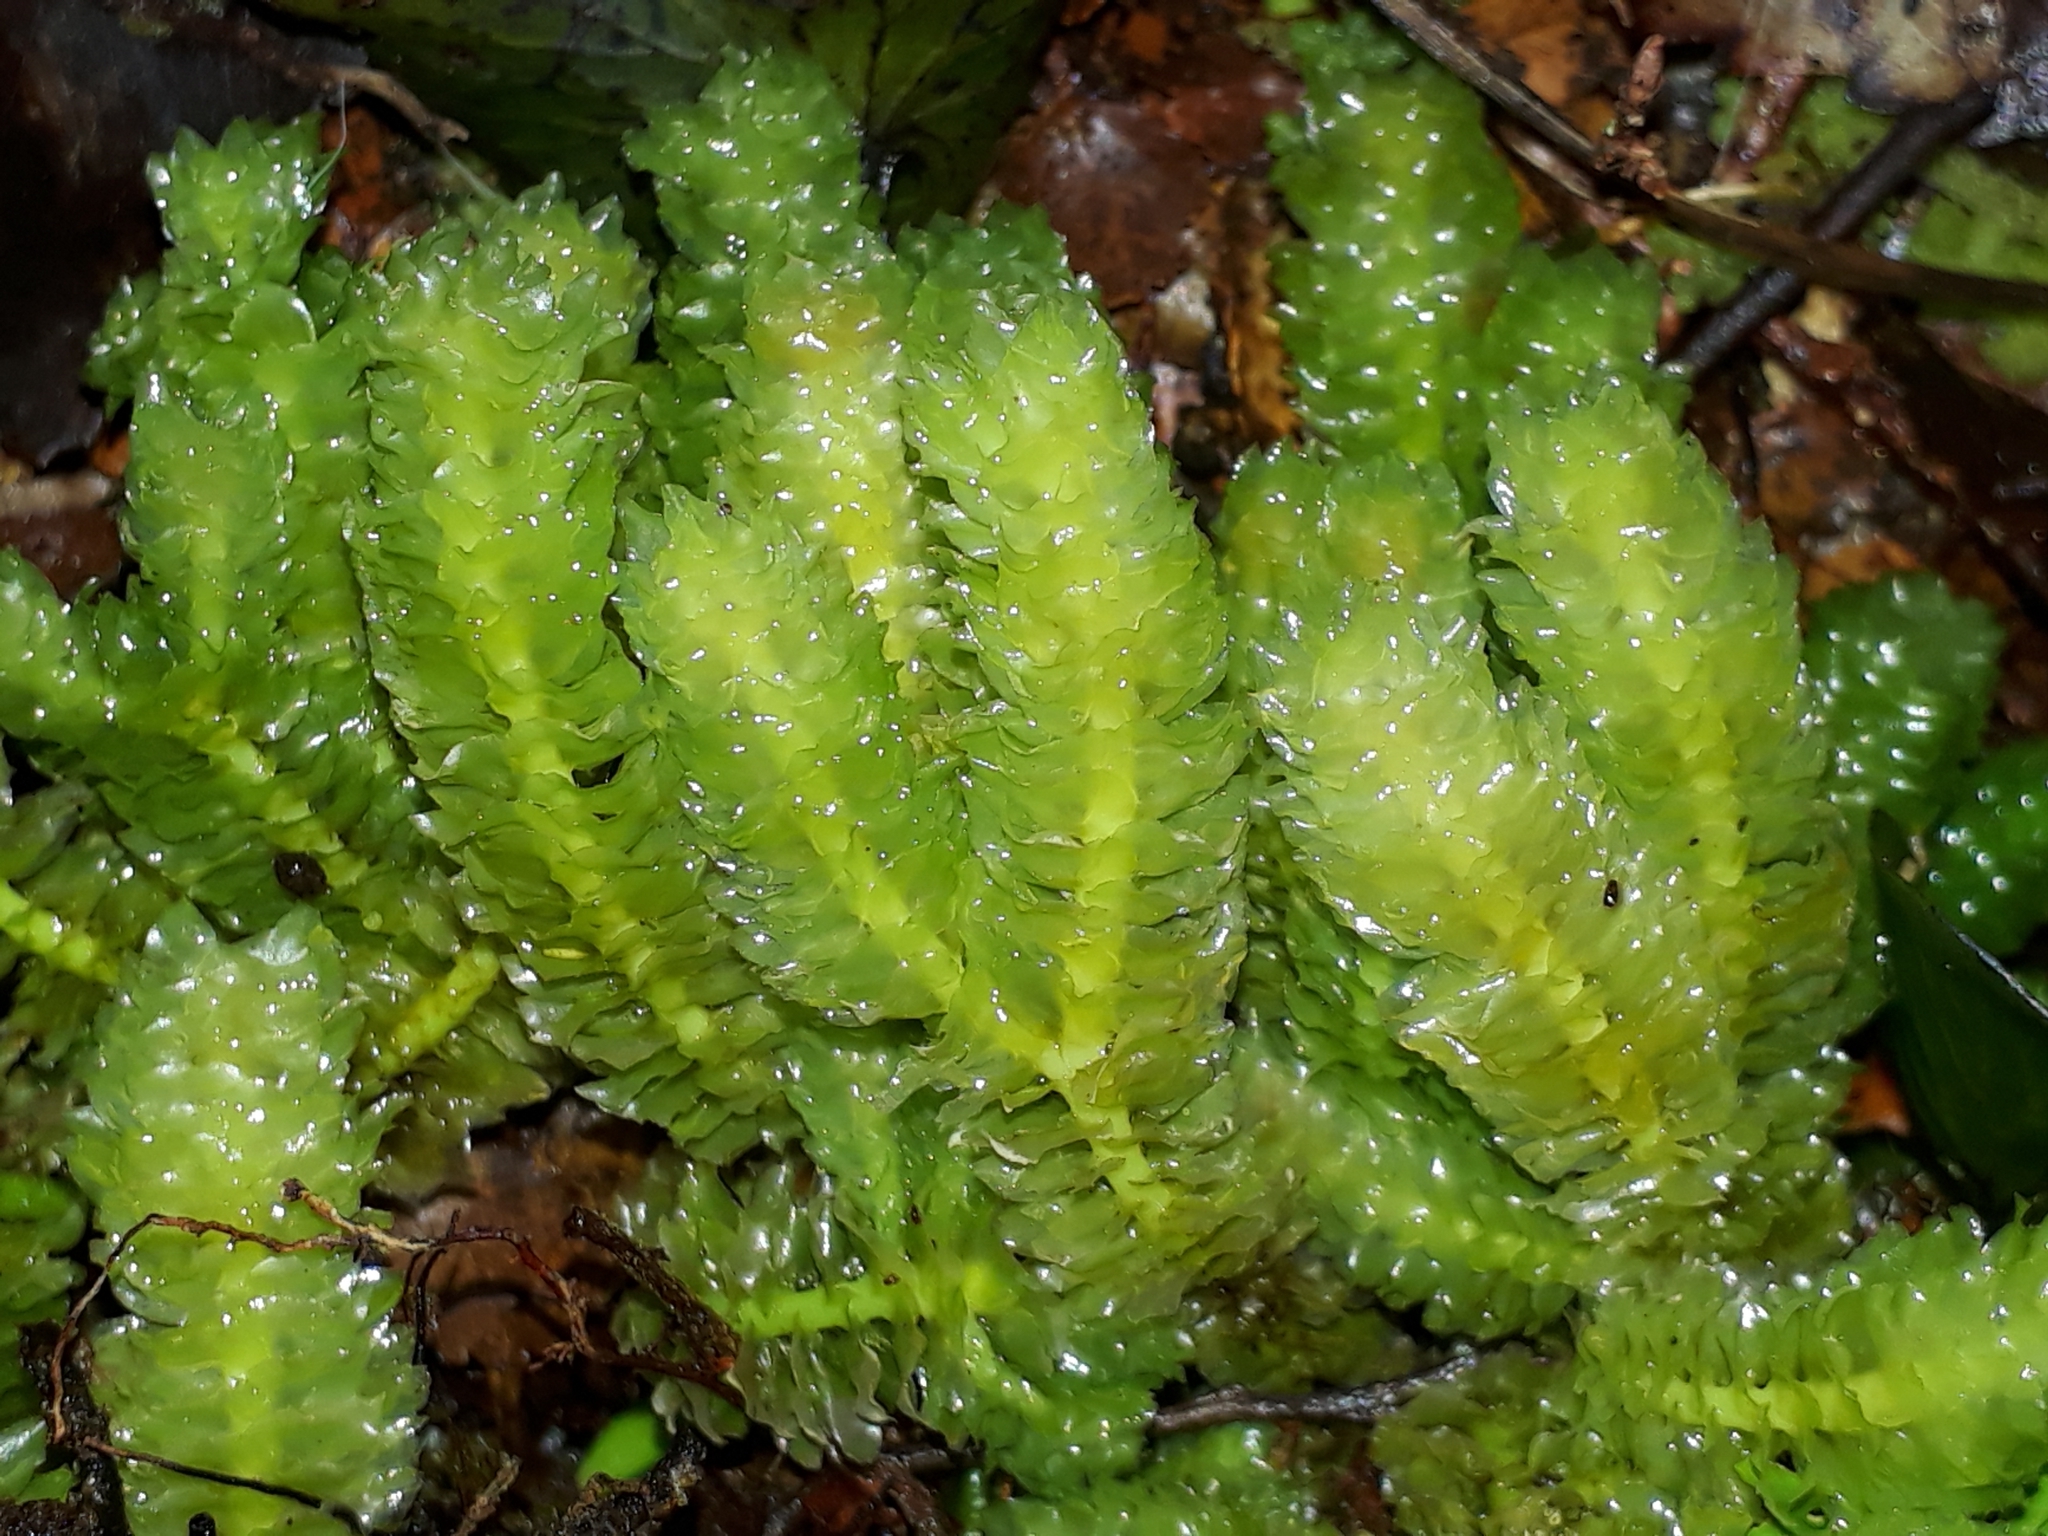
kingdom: Plantae
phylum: Marchantiophyta
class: Jungermanniopsida
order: Jungermanniales
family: Schistochilaceae
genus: Schistochila
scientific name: Schistochila nobilis
